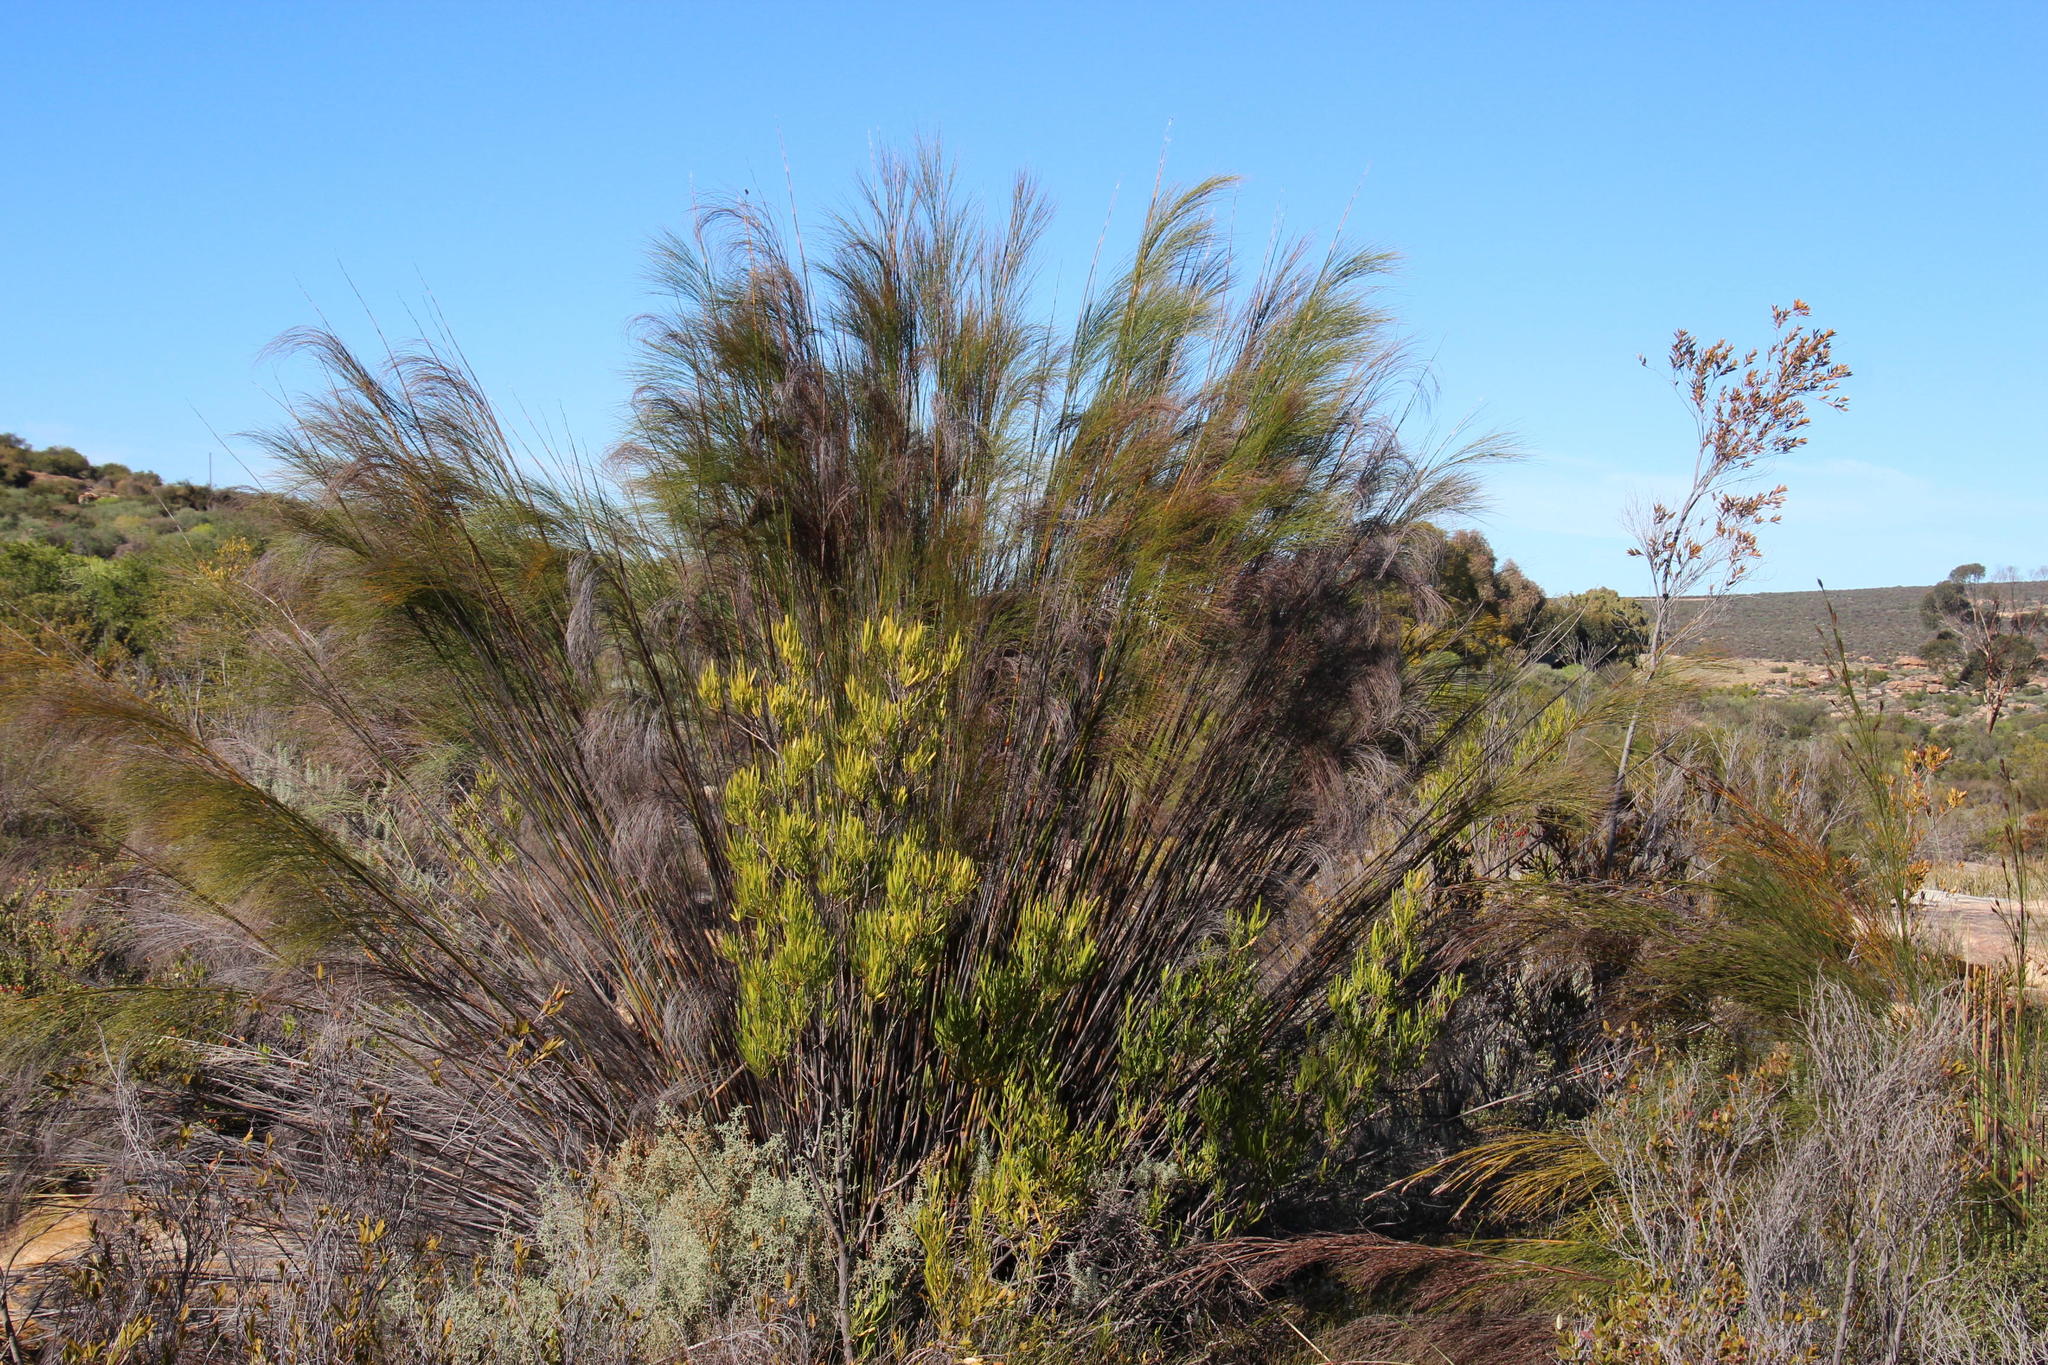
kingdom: Plantae
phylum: Tracheophyta
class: Liliopsida
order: Poales
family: Restionaceae
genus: Cannomois
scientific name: Cannomois robusta
